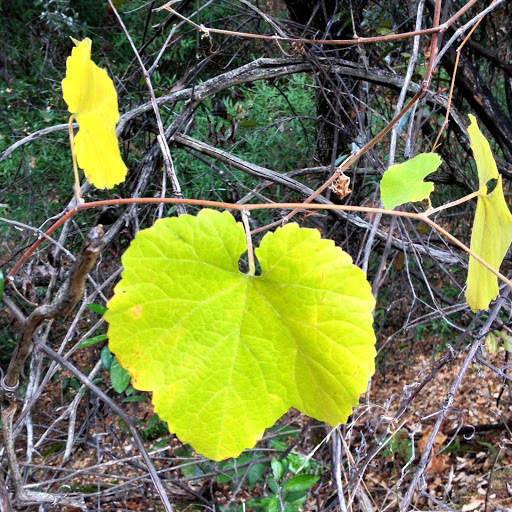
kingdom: Plantae
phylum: Tracheophyta
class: Magnoliopsida
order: Vitales
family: Vitaceae
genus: Vitis
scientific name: Vitis californica
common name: California wild grape
